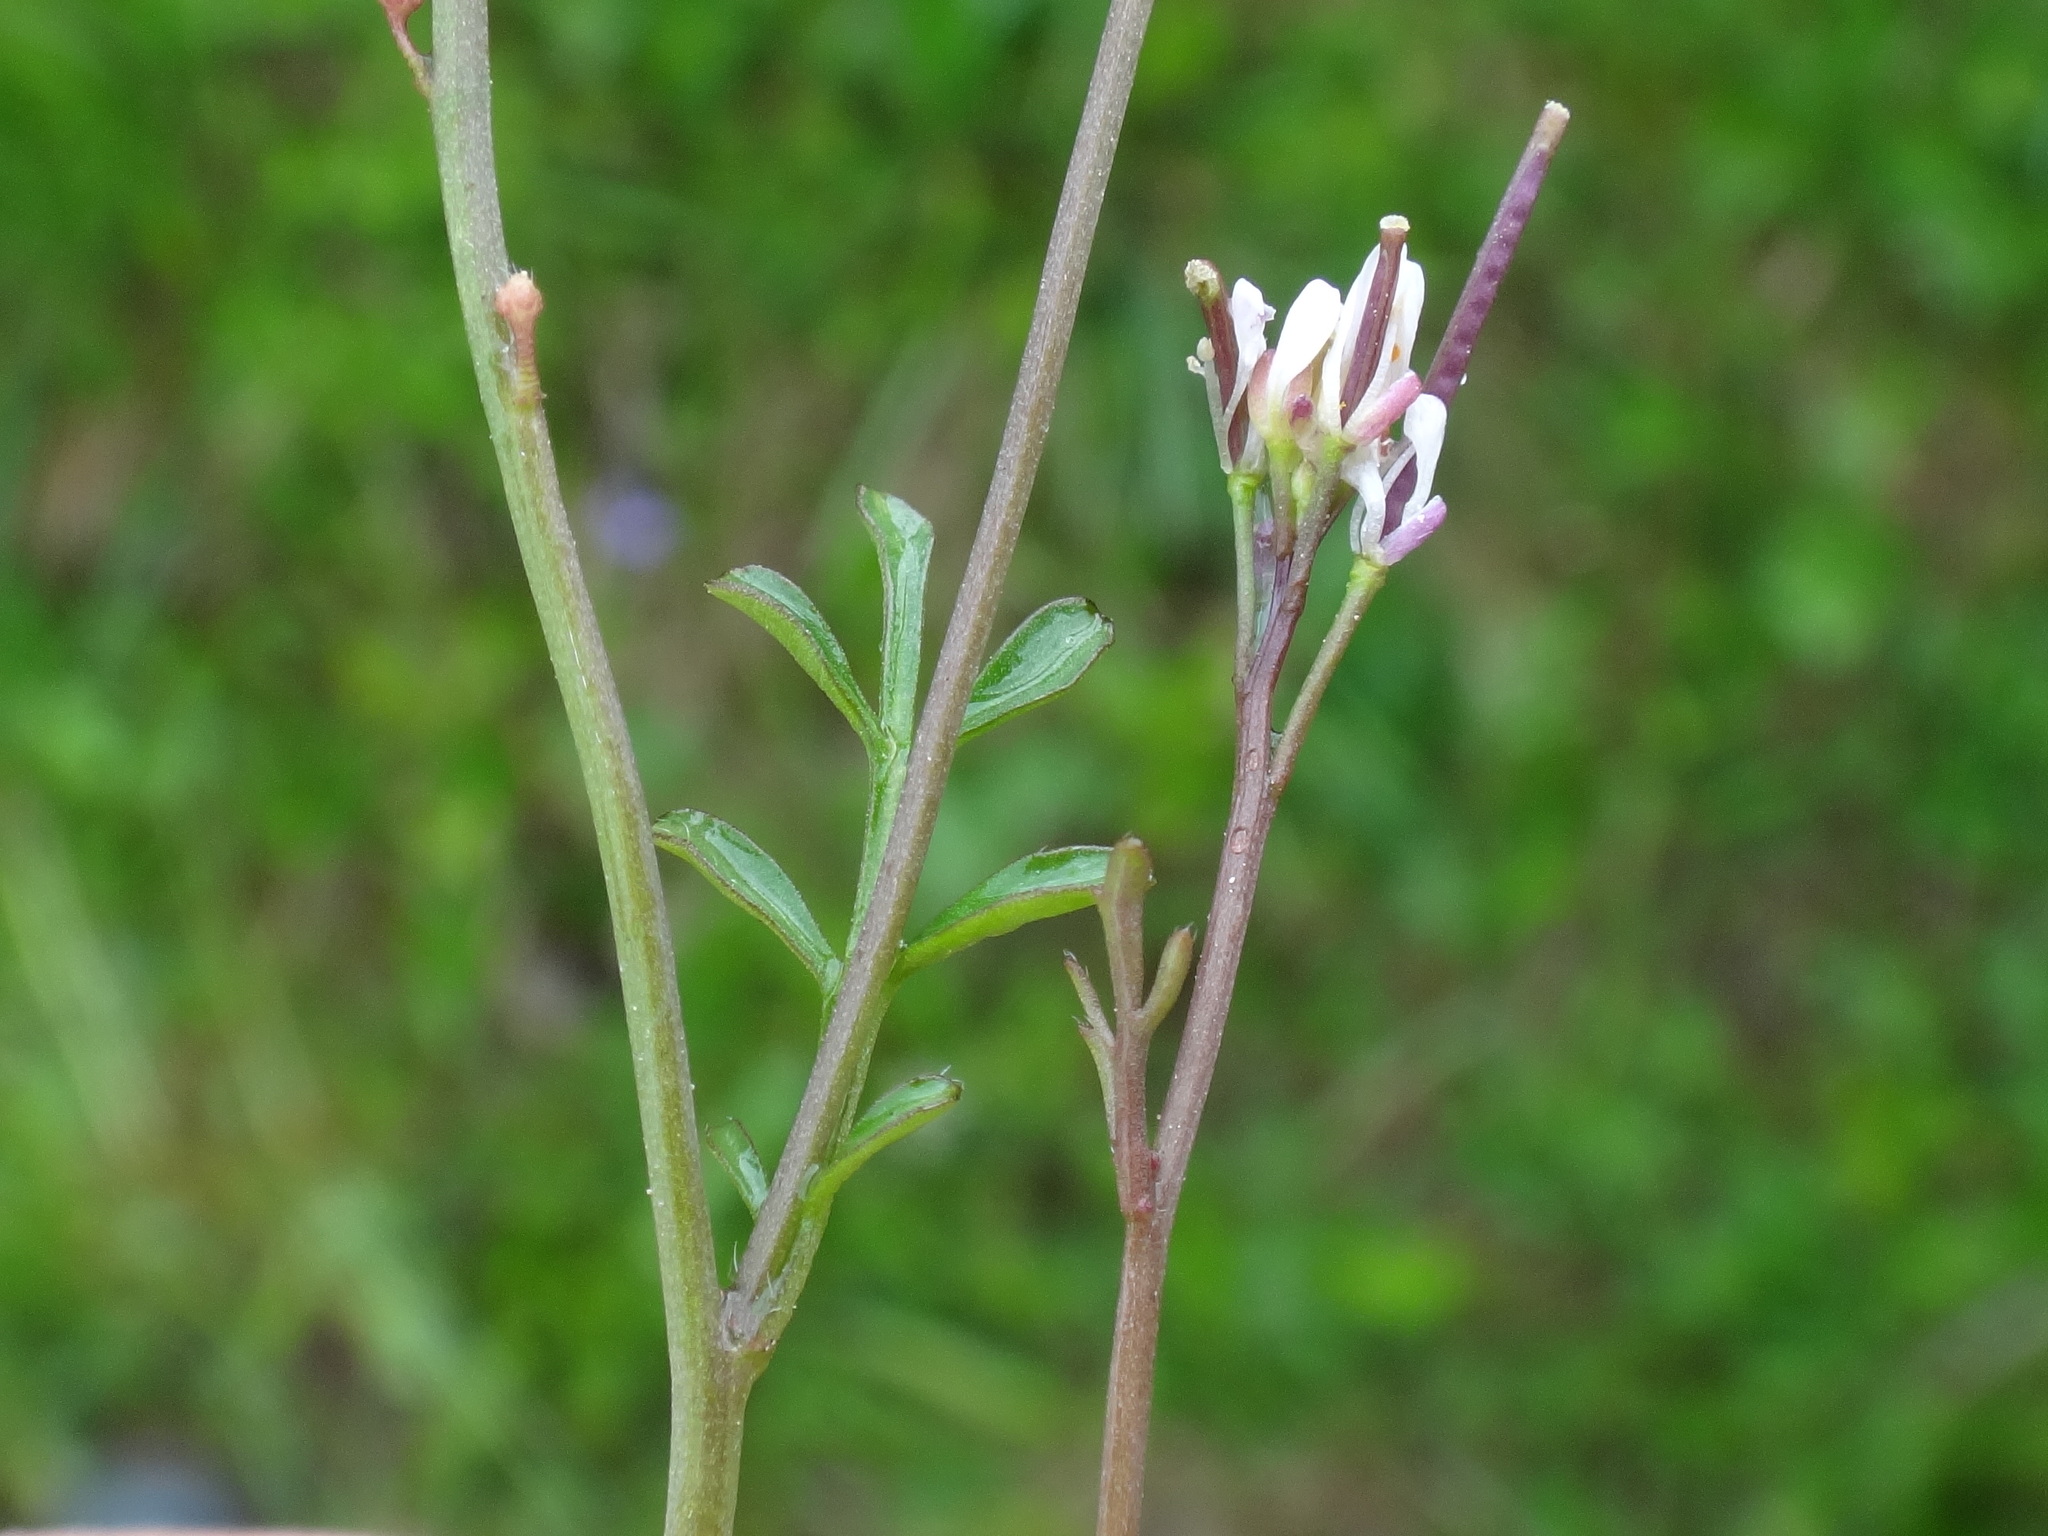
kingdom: Plantae
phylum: Tracheophyta
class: Magnoliopsida
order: Brassicales
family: Brassicaceae
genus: Cardamine
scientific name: Cardamine hirsuta
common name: Hairy bittercress
